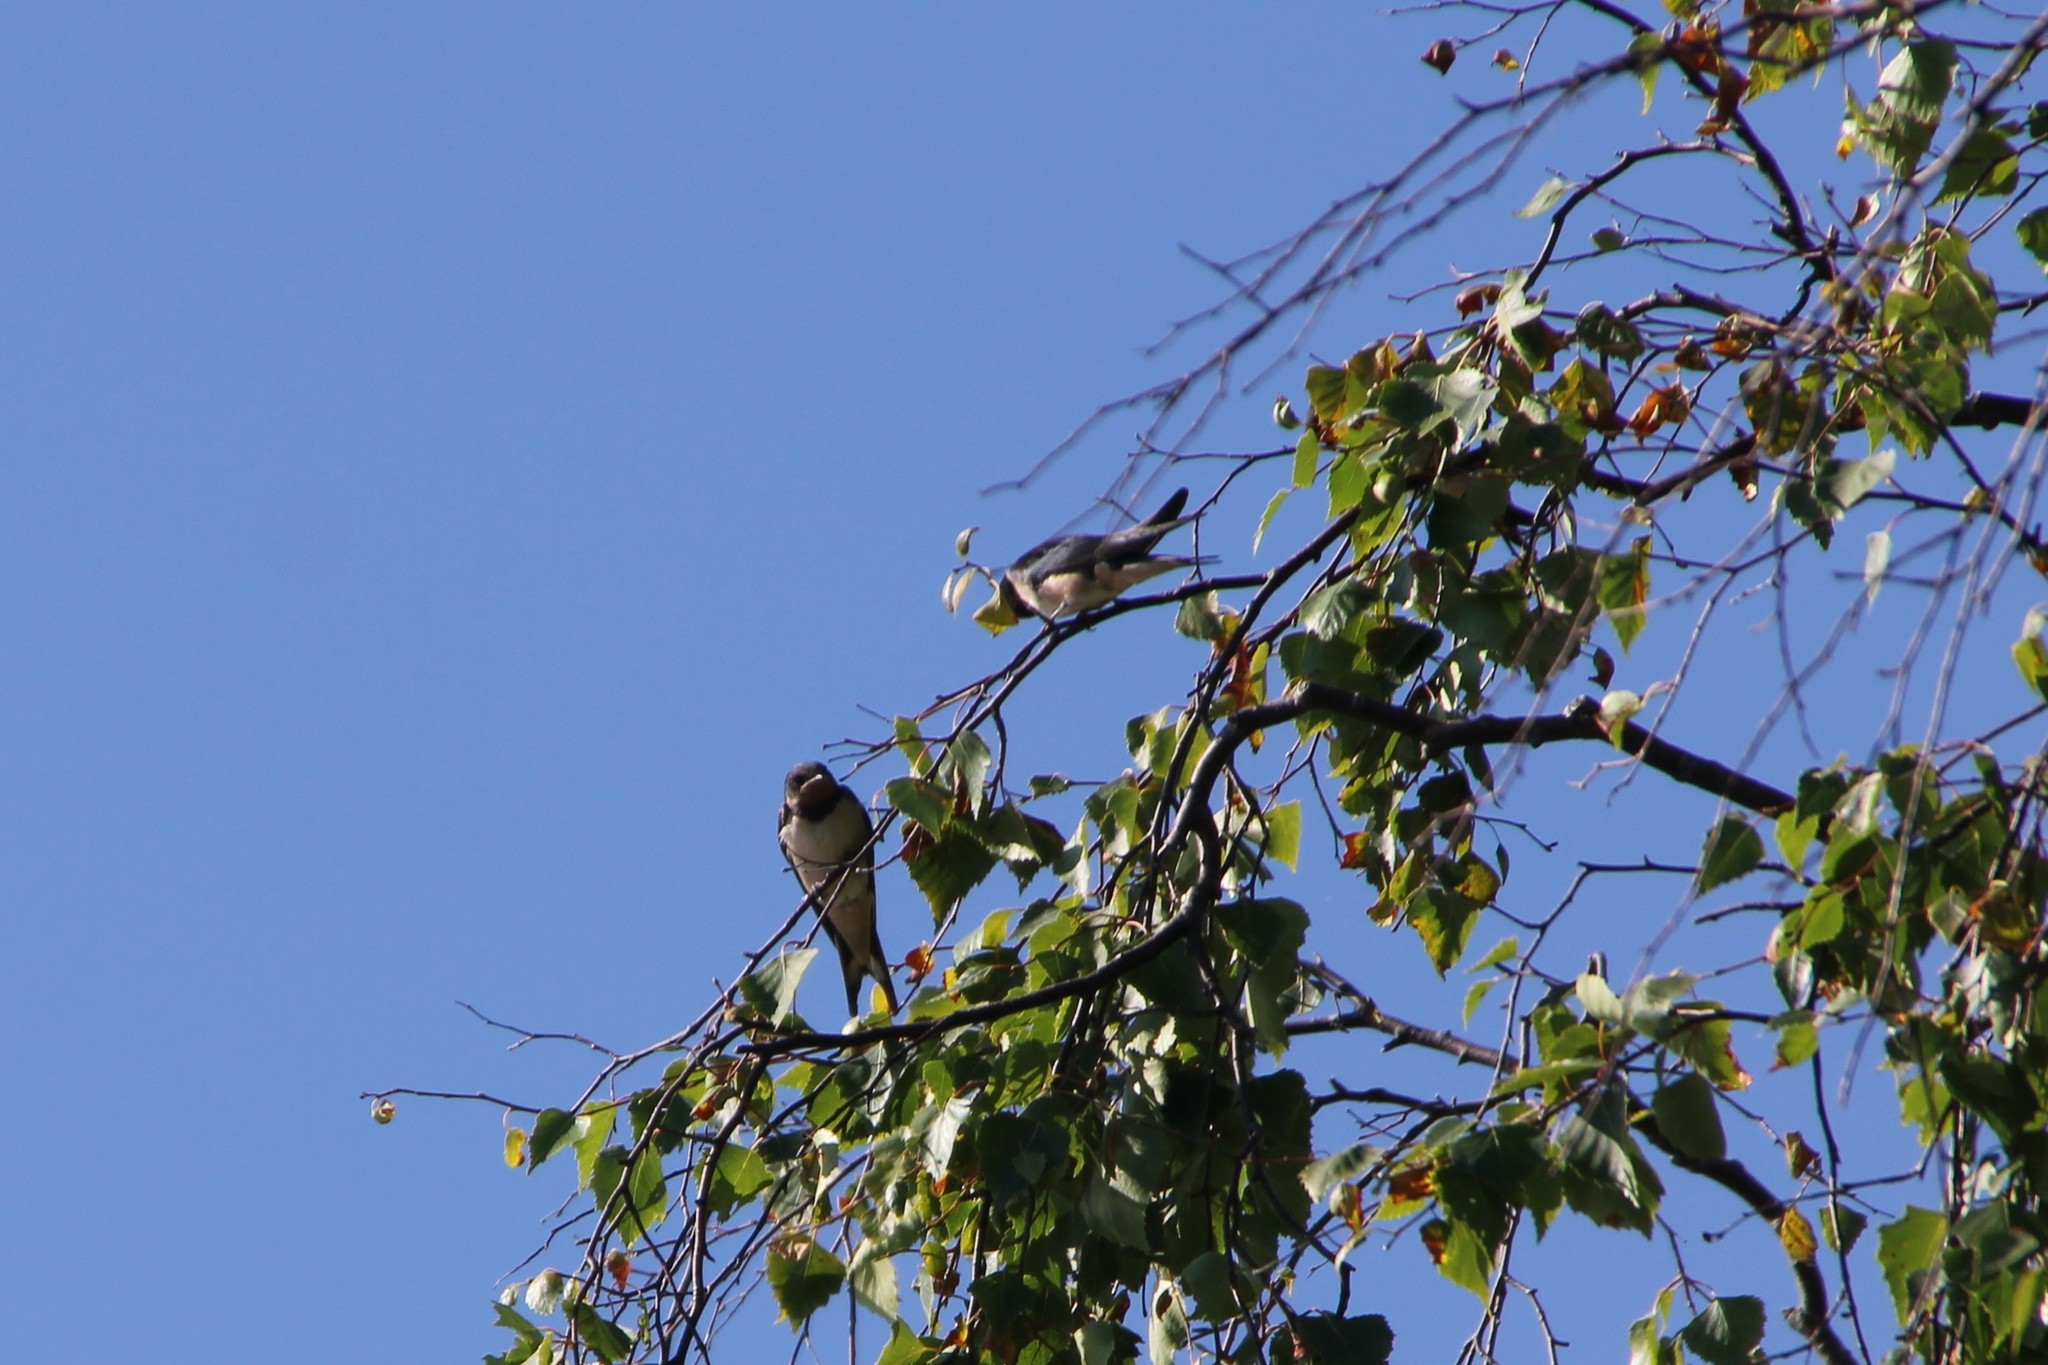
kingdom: Animalia
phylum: Chordata
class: Aves
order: Passeriformes
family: Hirundinidae
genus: Hirundo
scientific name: Hirundo rustica
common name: Barn swallow
